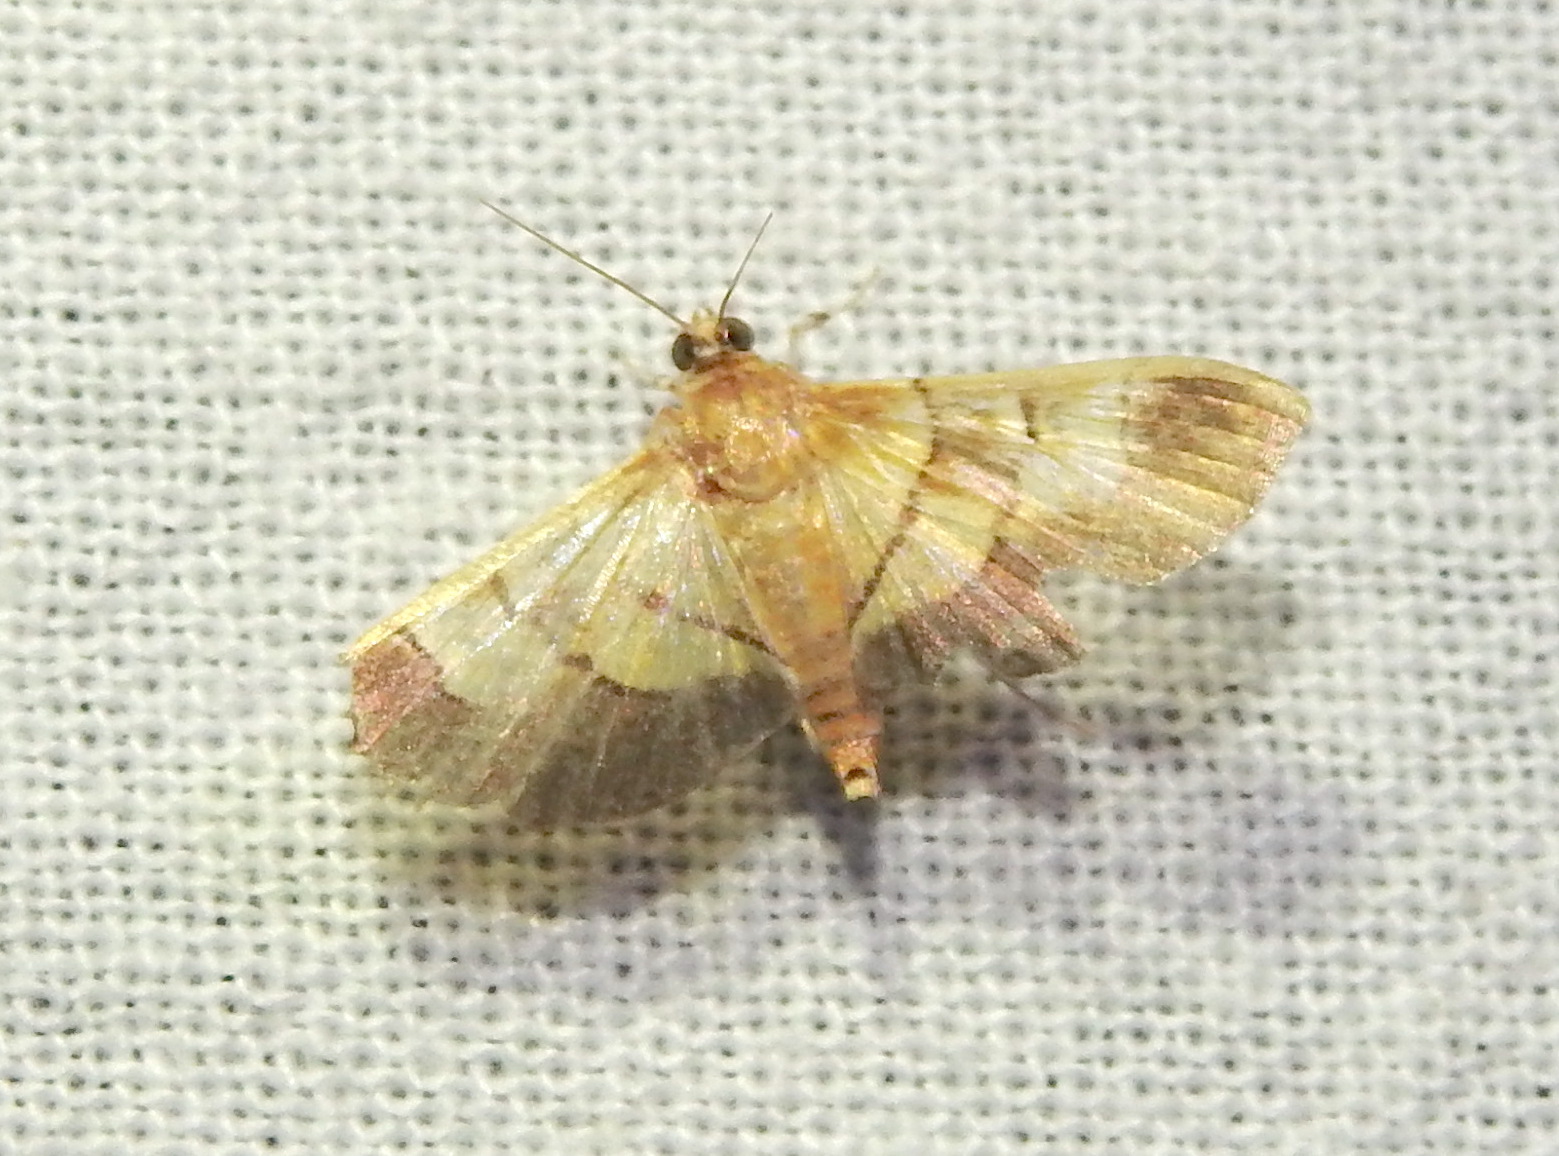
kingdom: Animalia
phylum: Arthropoda
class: Insecta
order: Lepidoptera
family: Crambidae
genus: Syngamia
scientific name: Syngamia latimarginalis
